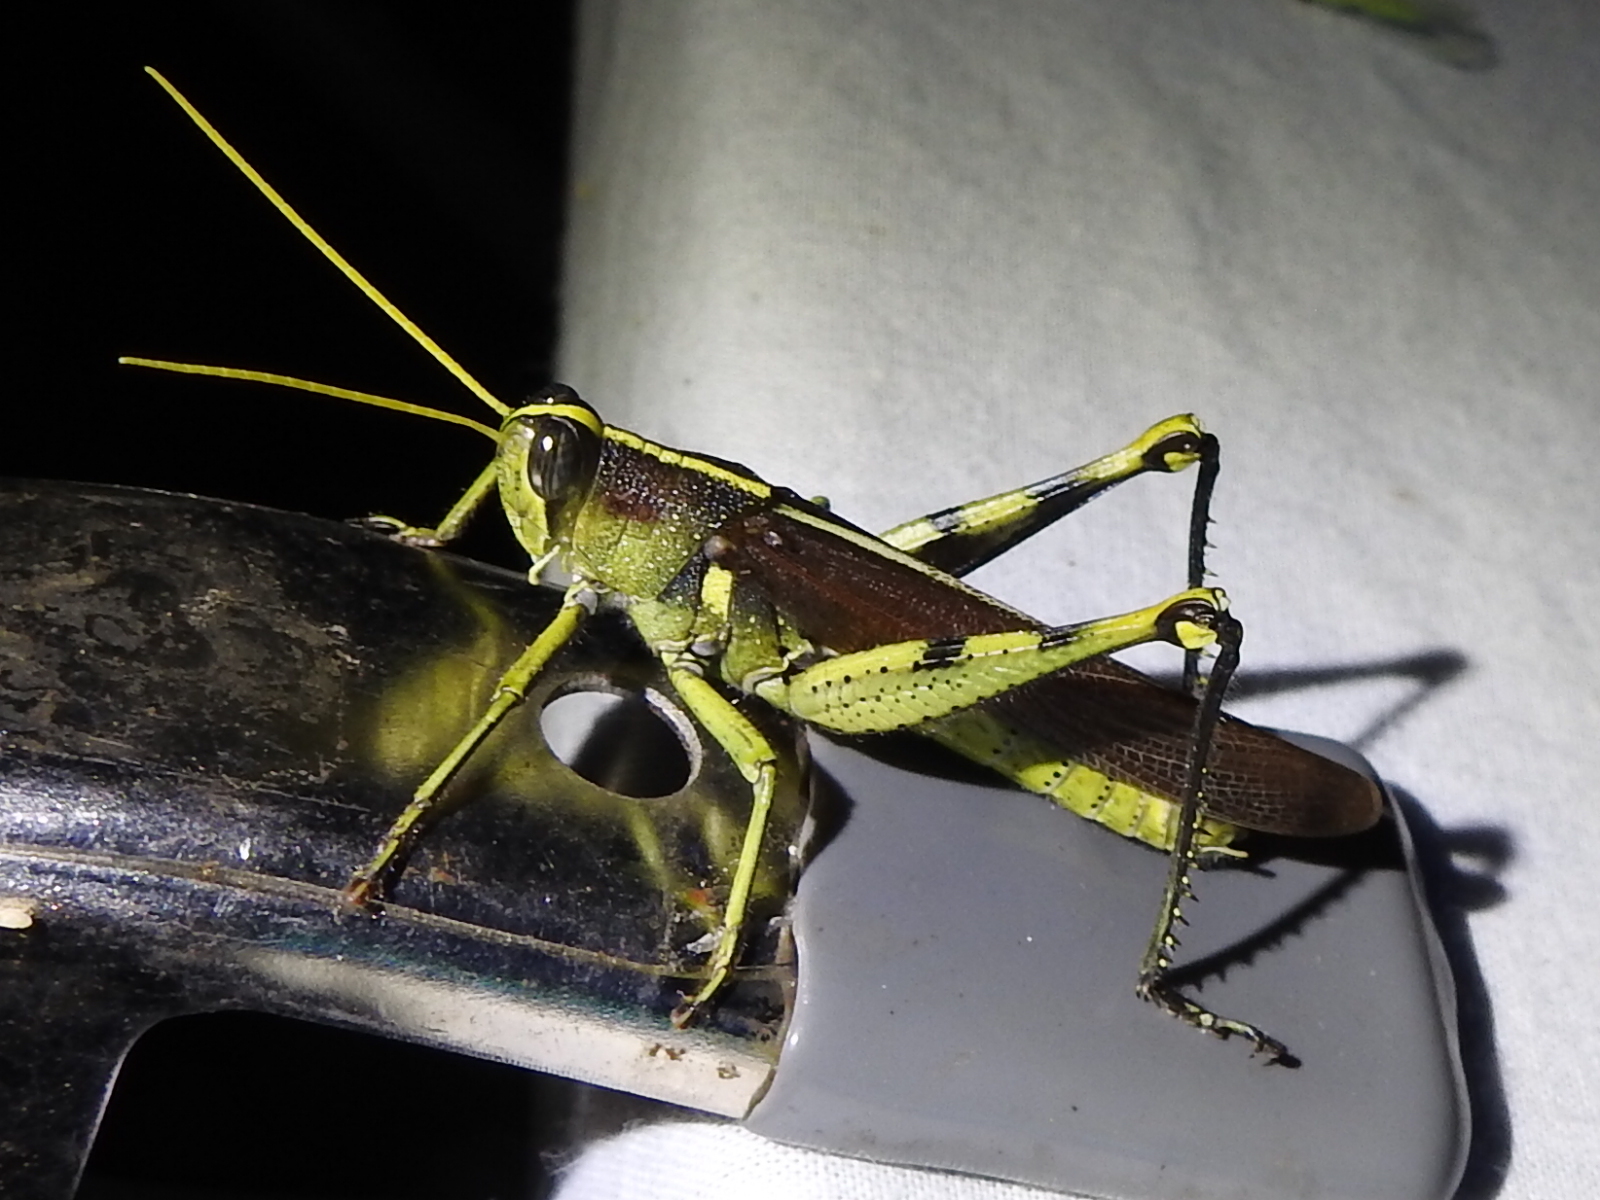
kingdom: Animalia
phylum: Arthropoda
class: Insecta
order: Orthoptera
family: Acrididae
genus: Schistocerca
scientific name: Schistocerca obscura
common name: Obscure bird grasshopper
